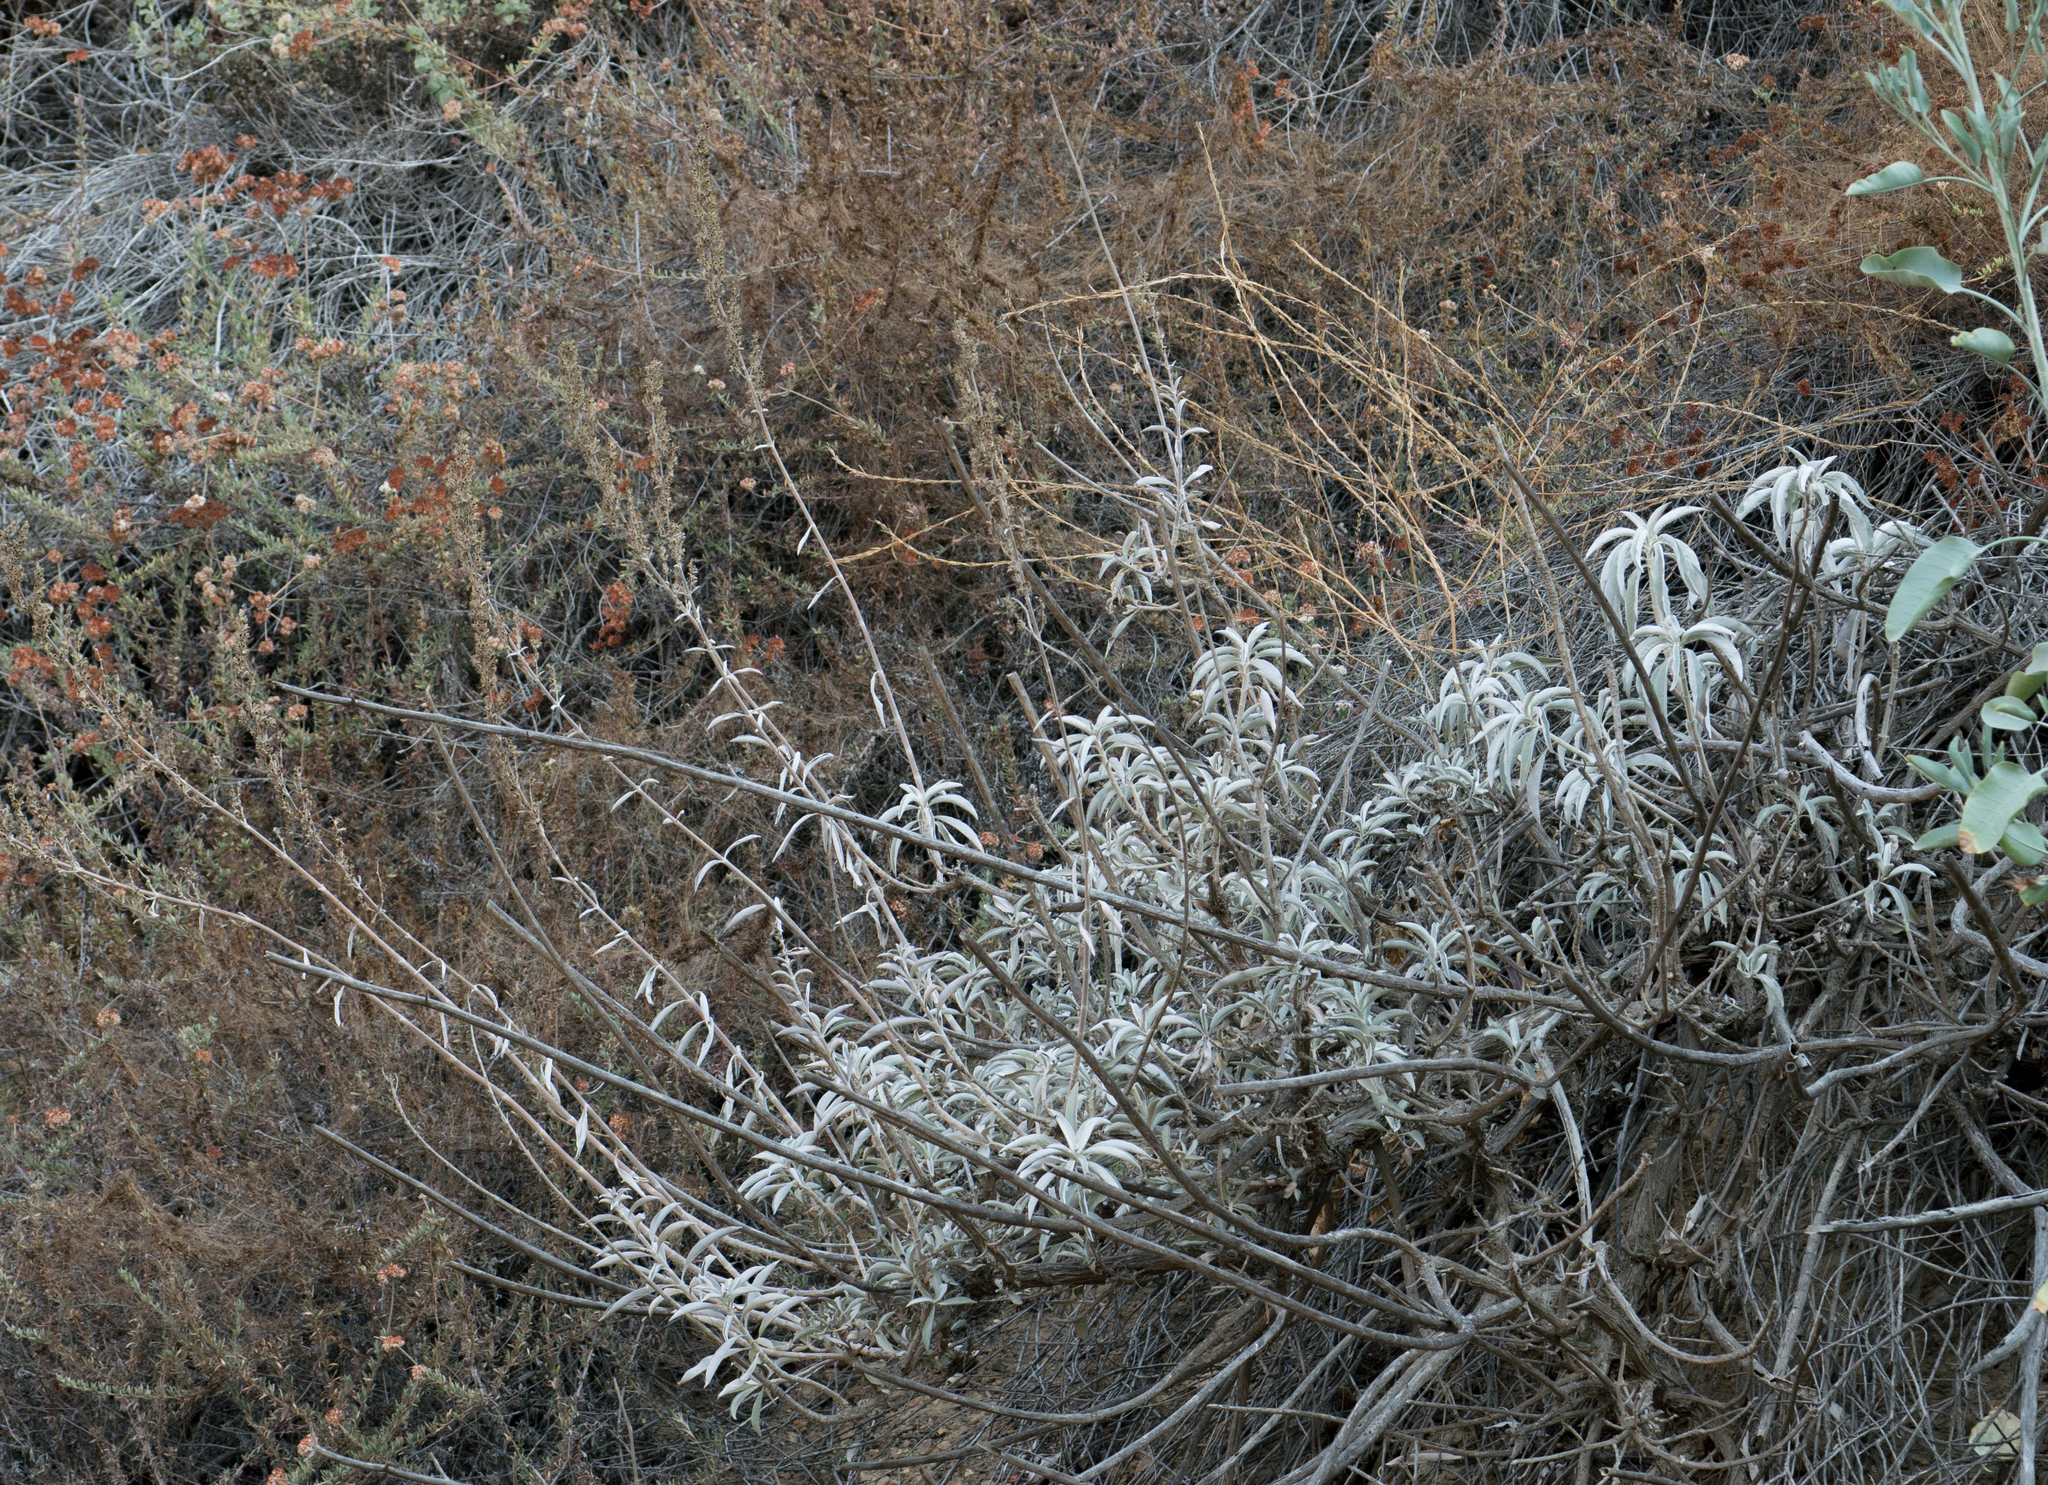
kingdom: Plantae
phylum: Tracheophyta
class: Magnoliopsida
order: Lamiales
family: Lamiaceae
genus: Salvia
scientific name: Salvia apiana
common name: White sage
